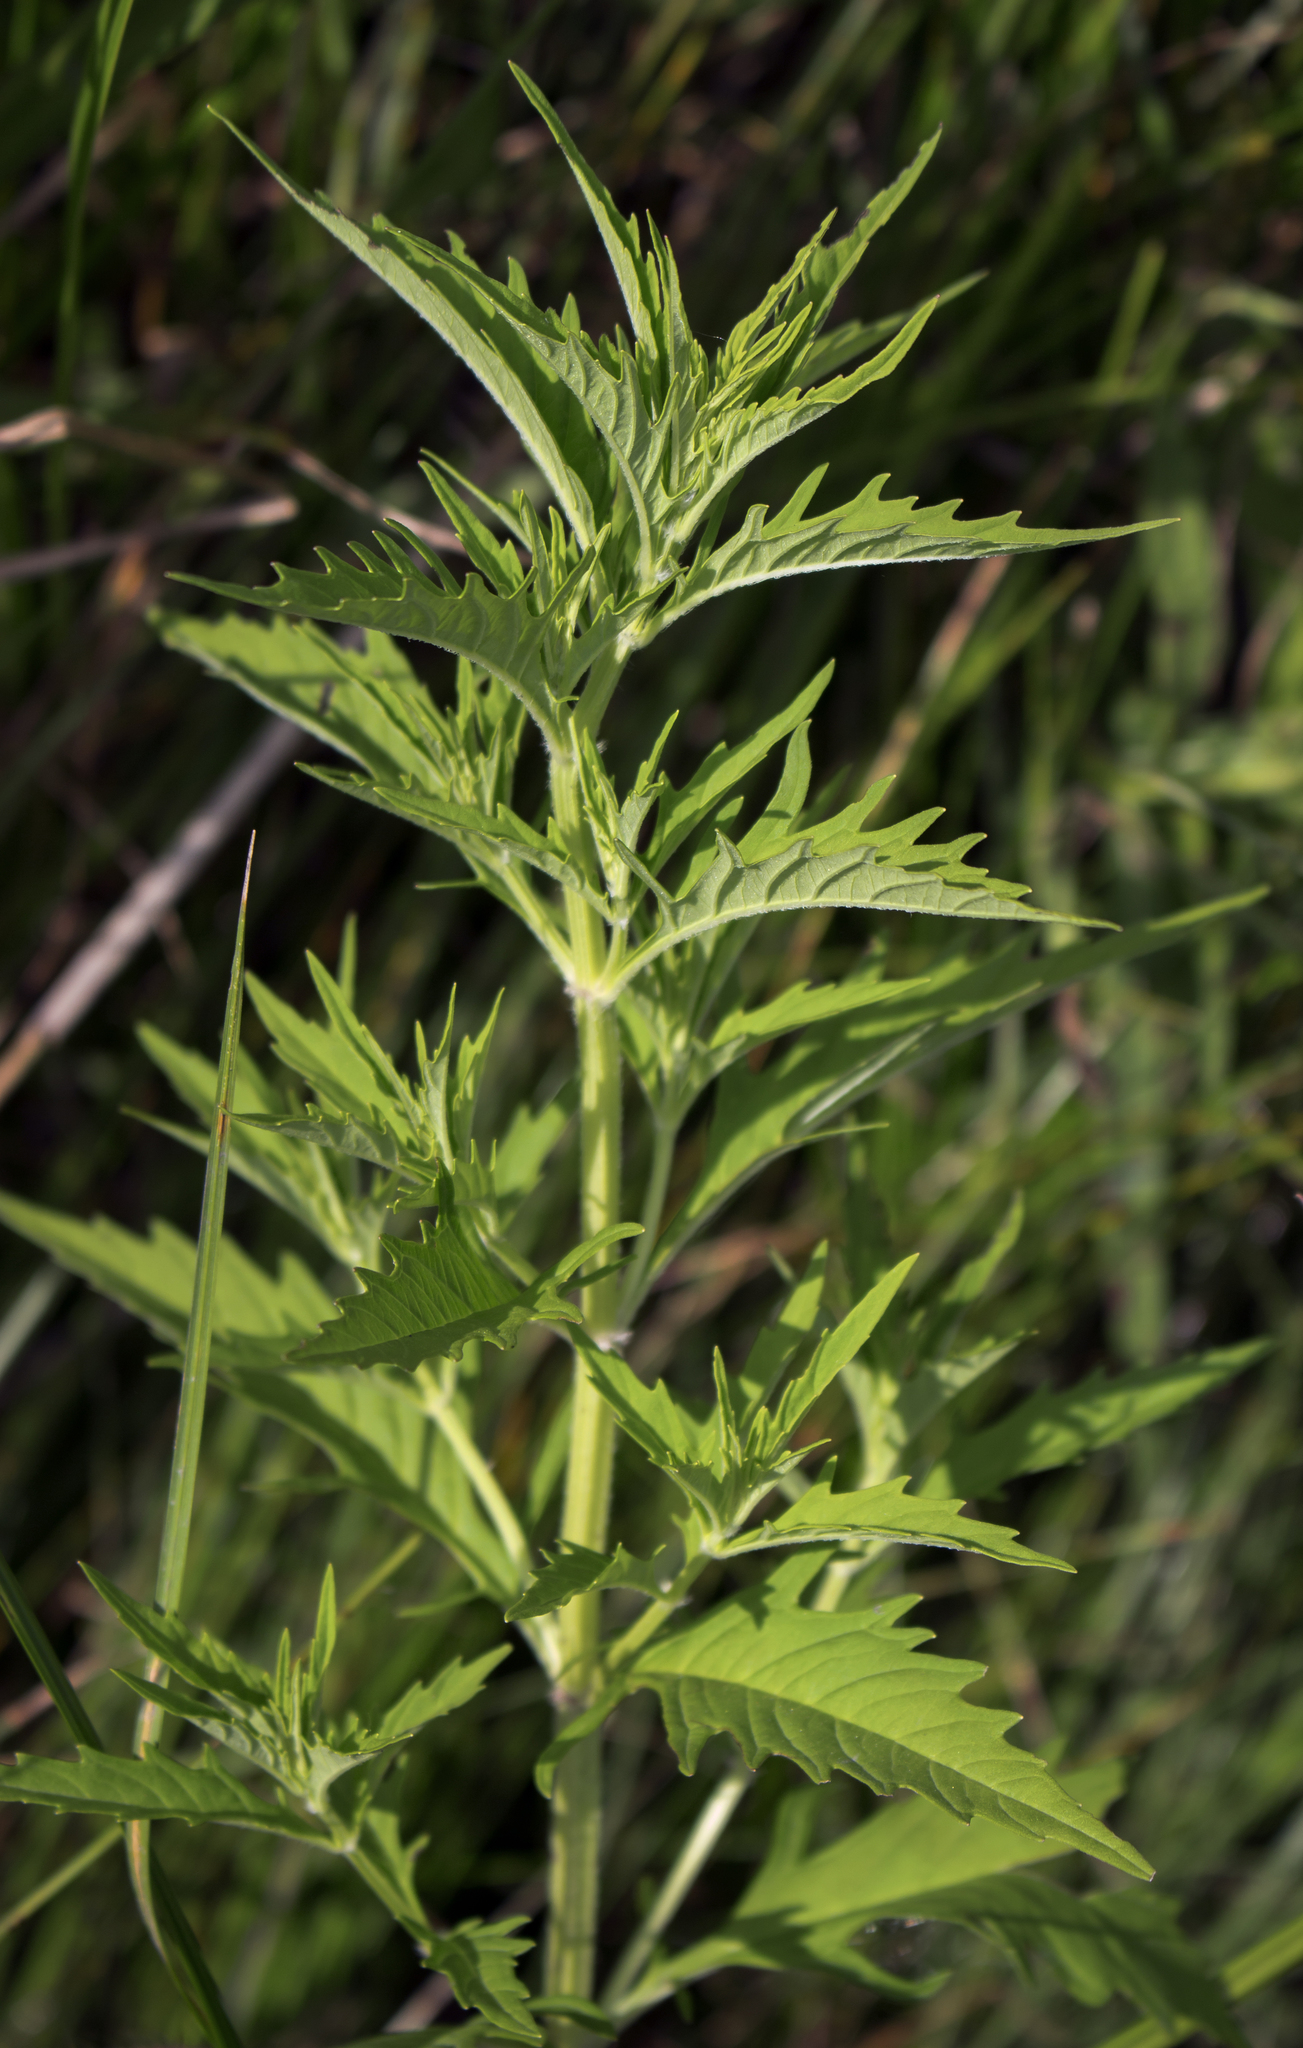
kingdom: Plantae
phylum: Tracheophyta
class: Magnoliopsida
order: Lamiales
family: Lamiaceae
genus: Lycopus
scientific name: Lycopus americanus
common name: American bugleweed
